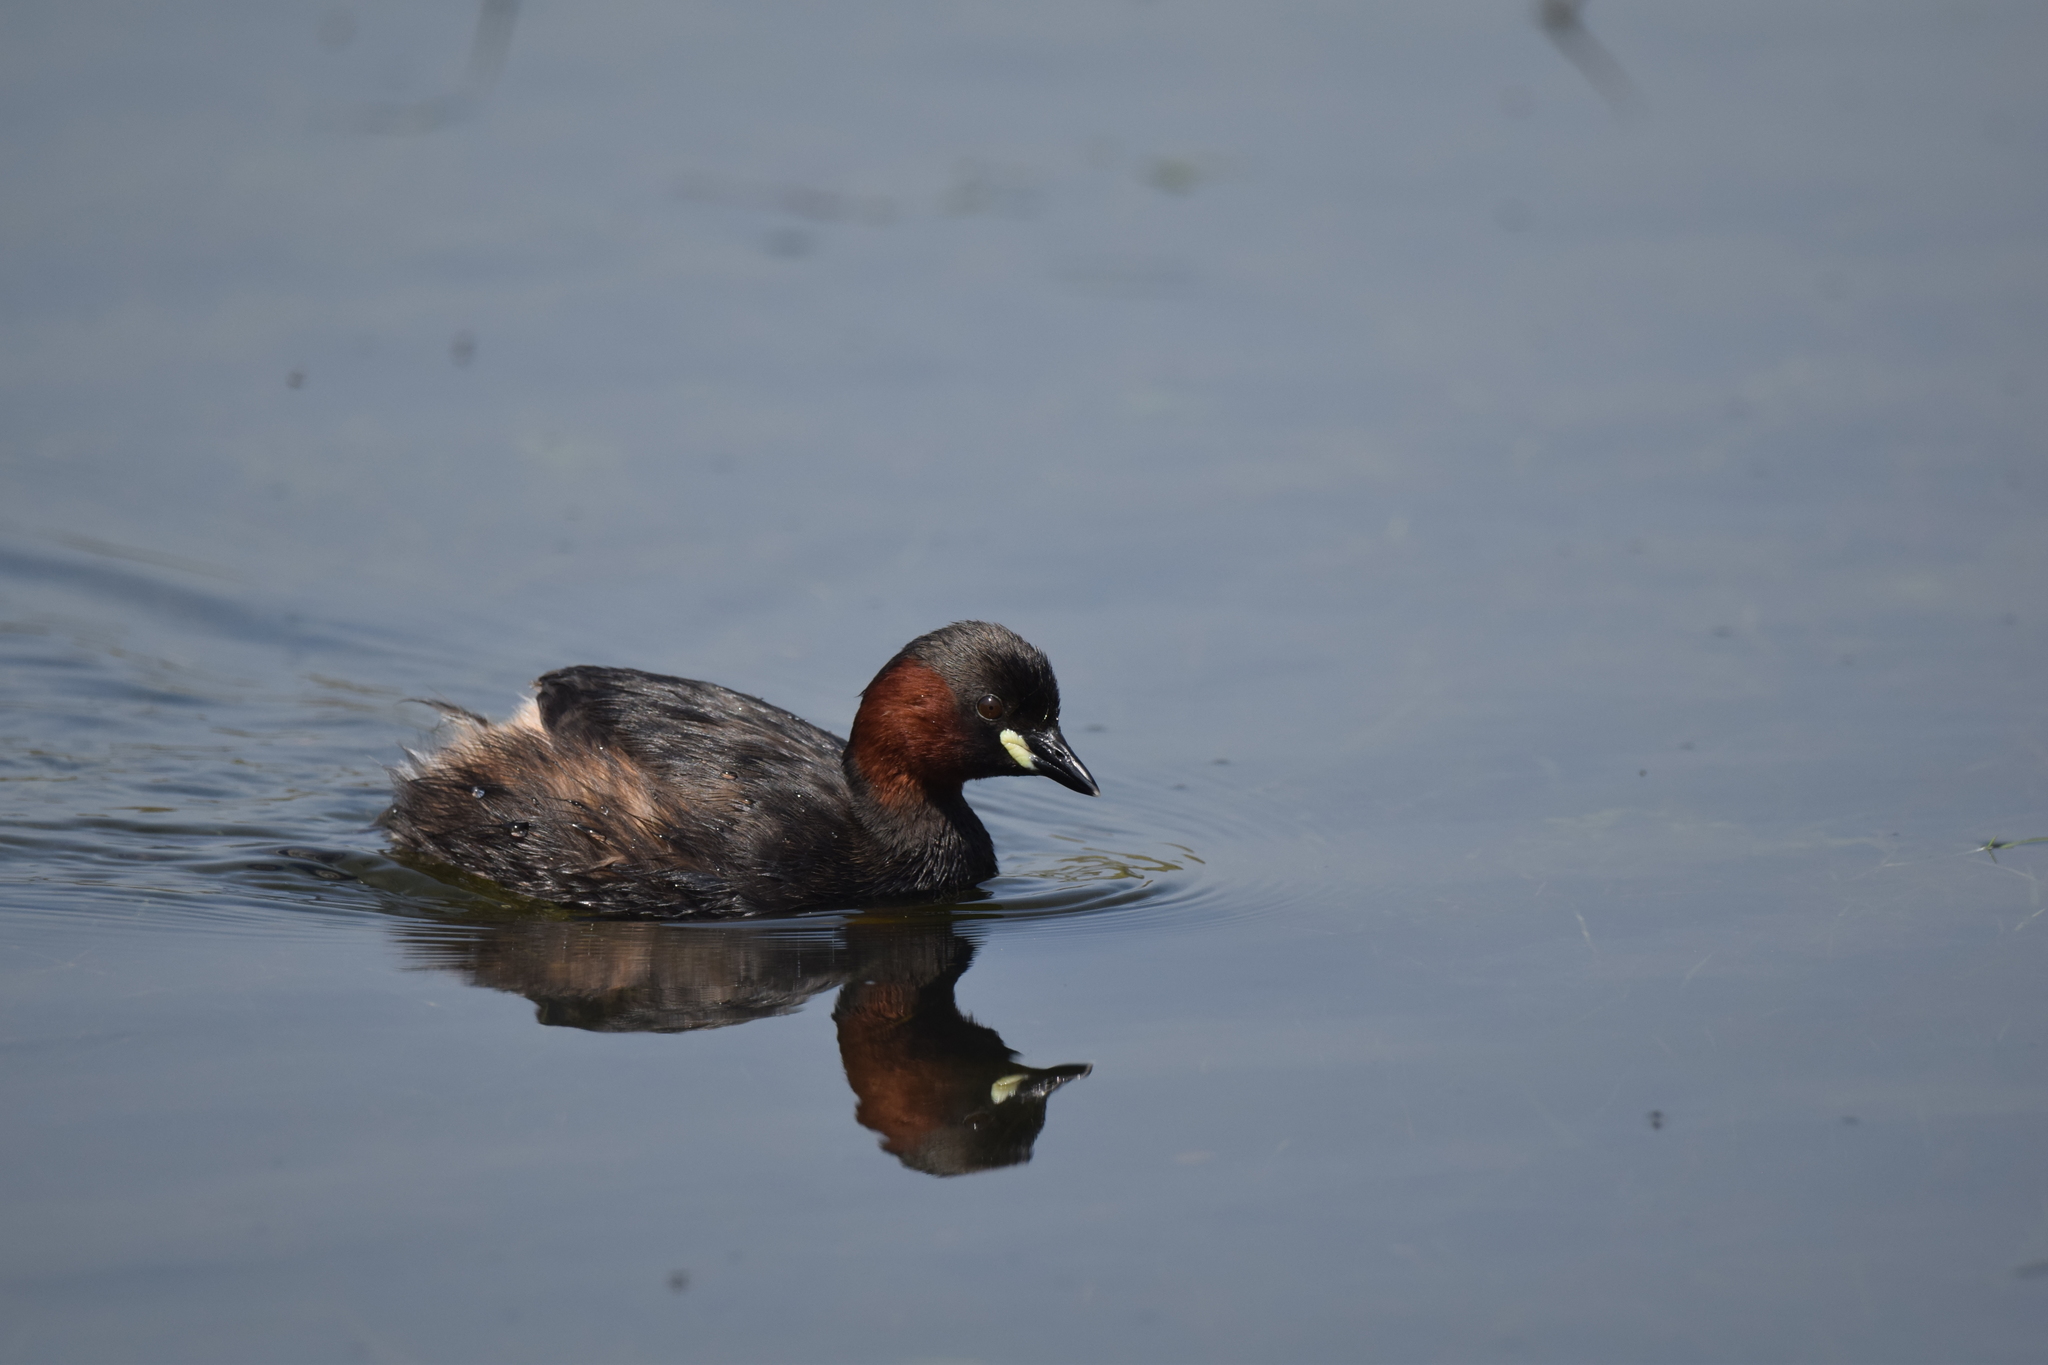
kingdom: Animalia
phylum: Chordata
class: Aves
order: Podicipediformes
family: Podicipedidae
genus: Tachybaptus
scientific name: Tachybaptus ruficollis
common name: Little grebe
